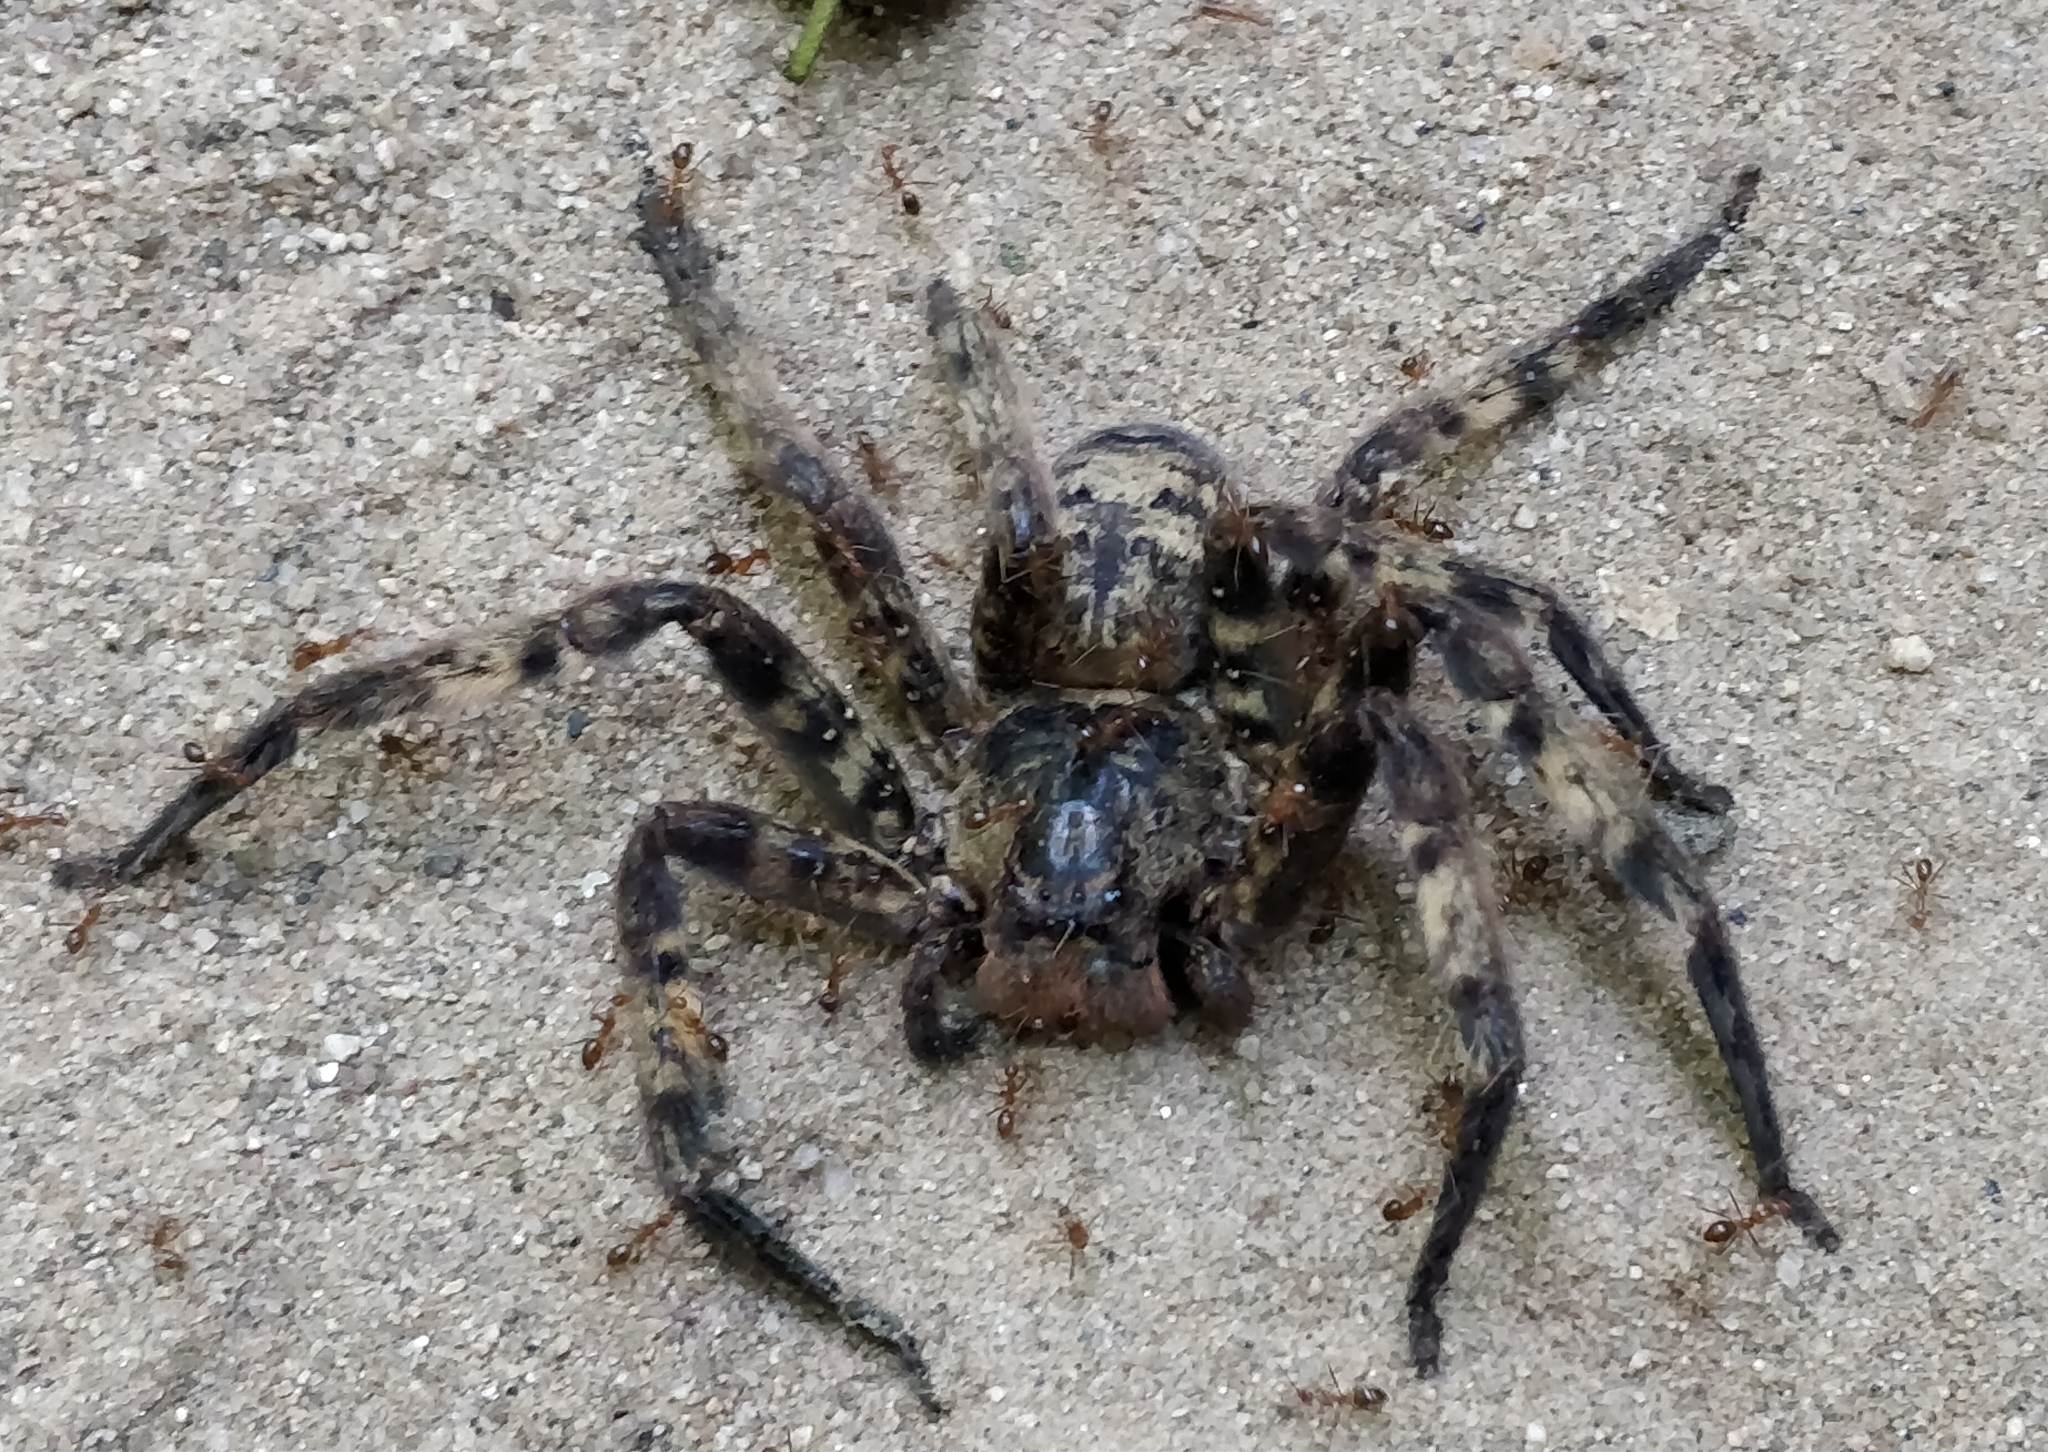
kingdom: Animalia
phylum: Arthropoda
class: Arachnida
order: Araneae
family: Sparassidae
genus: Heteropoda
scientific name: Heteropoda lunula
